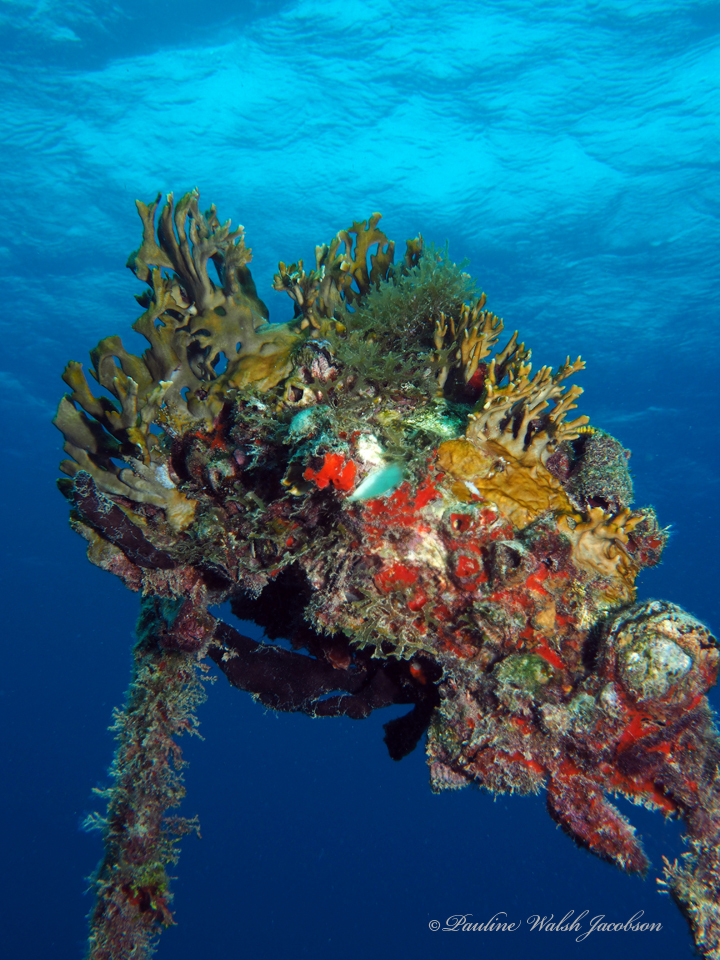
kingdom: Animalia
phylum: Cnidaria
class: Hydrozoa
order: Anthoathecata
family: Milleporidae
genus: Millepora
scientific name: Millepora alcicornis
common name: Branching fire coral
